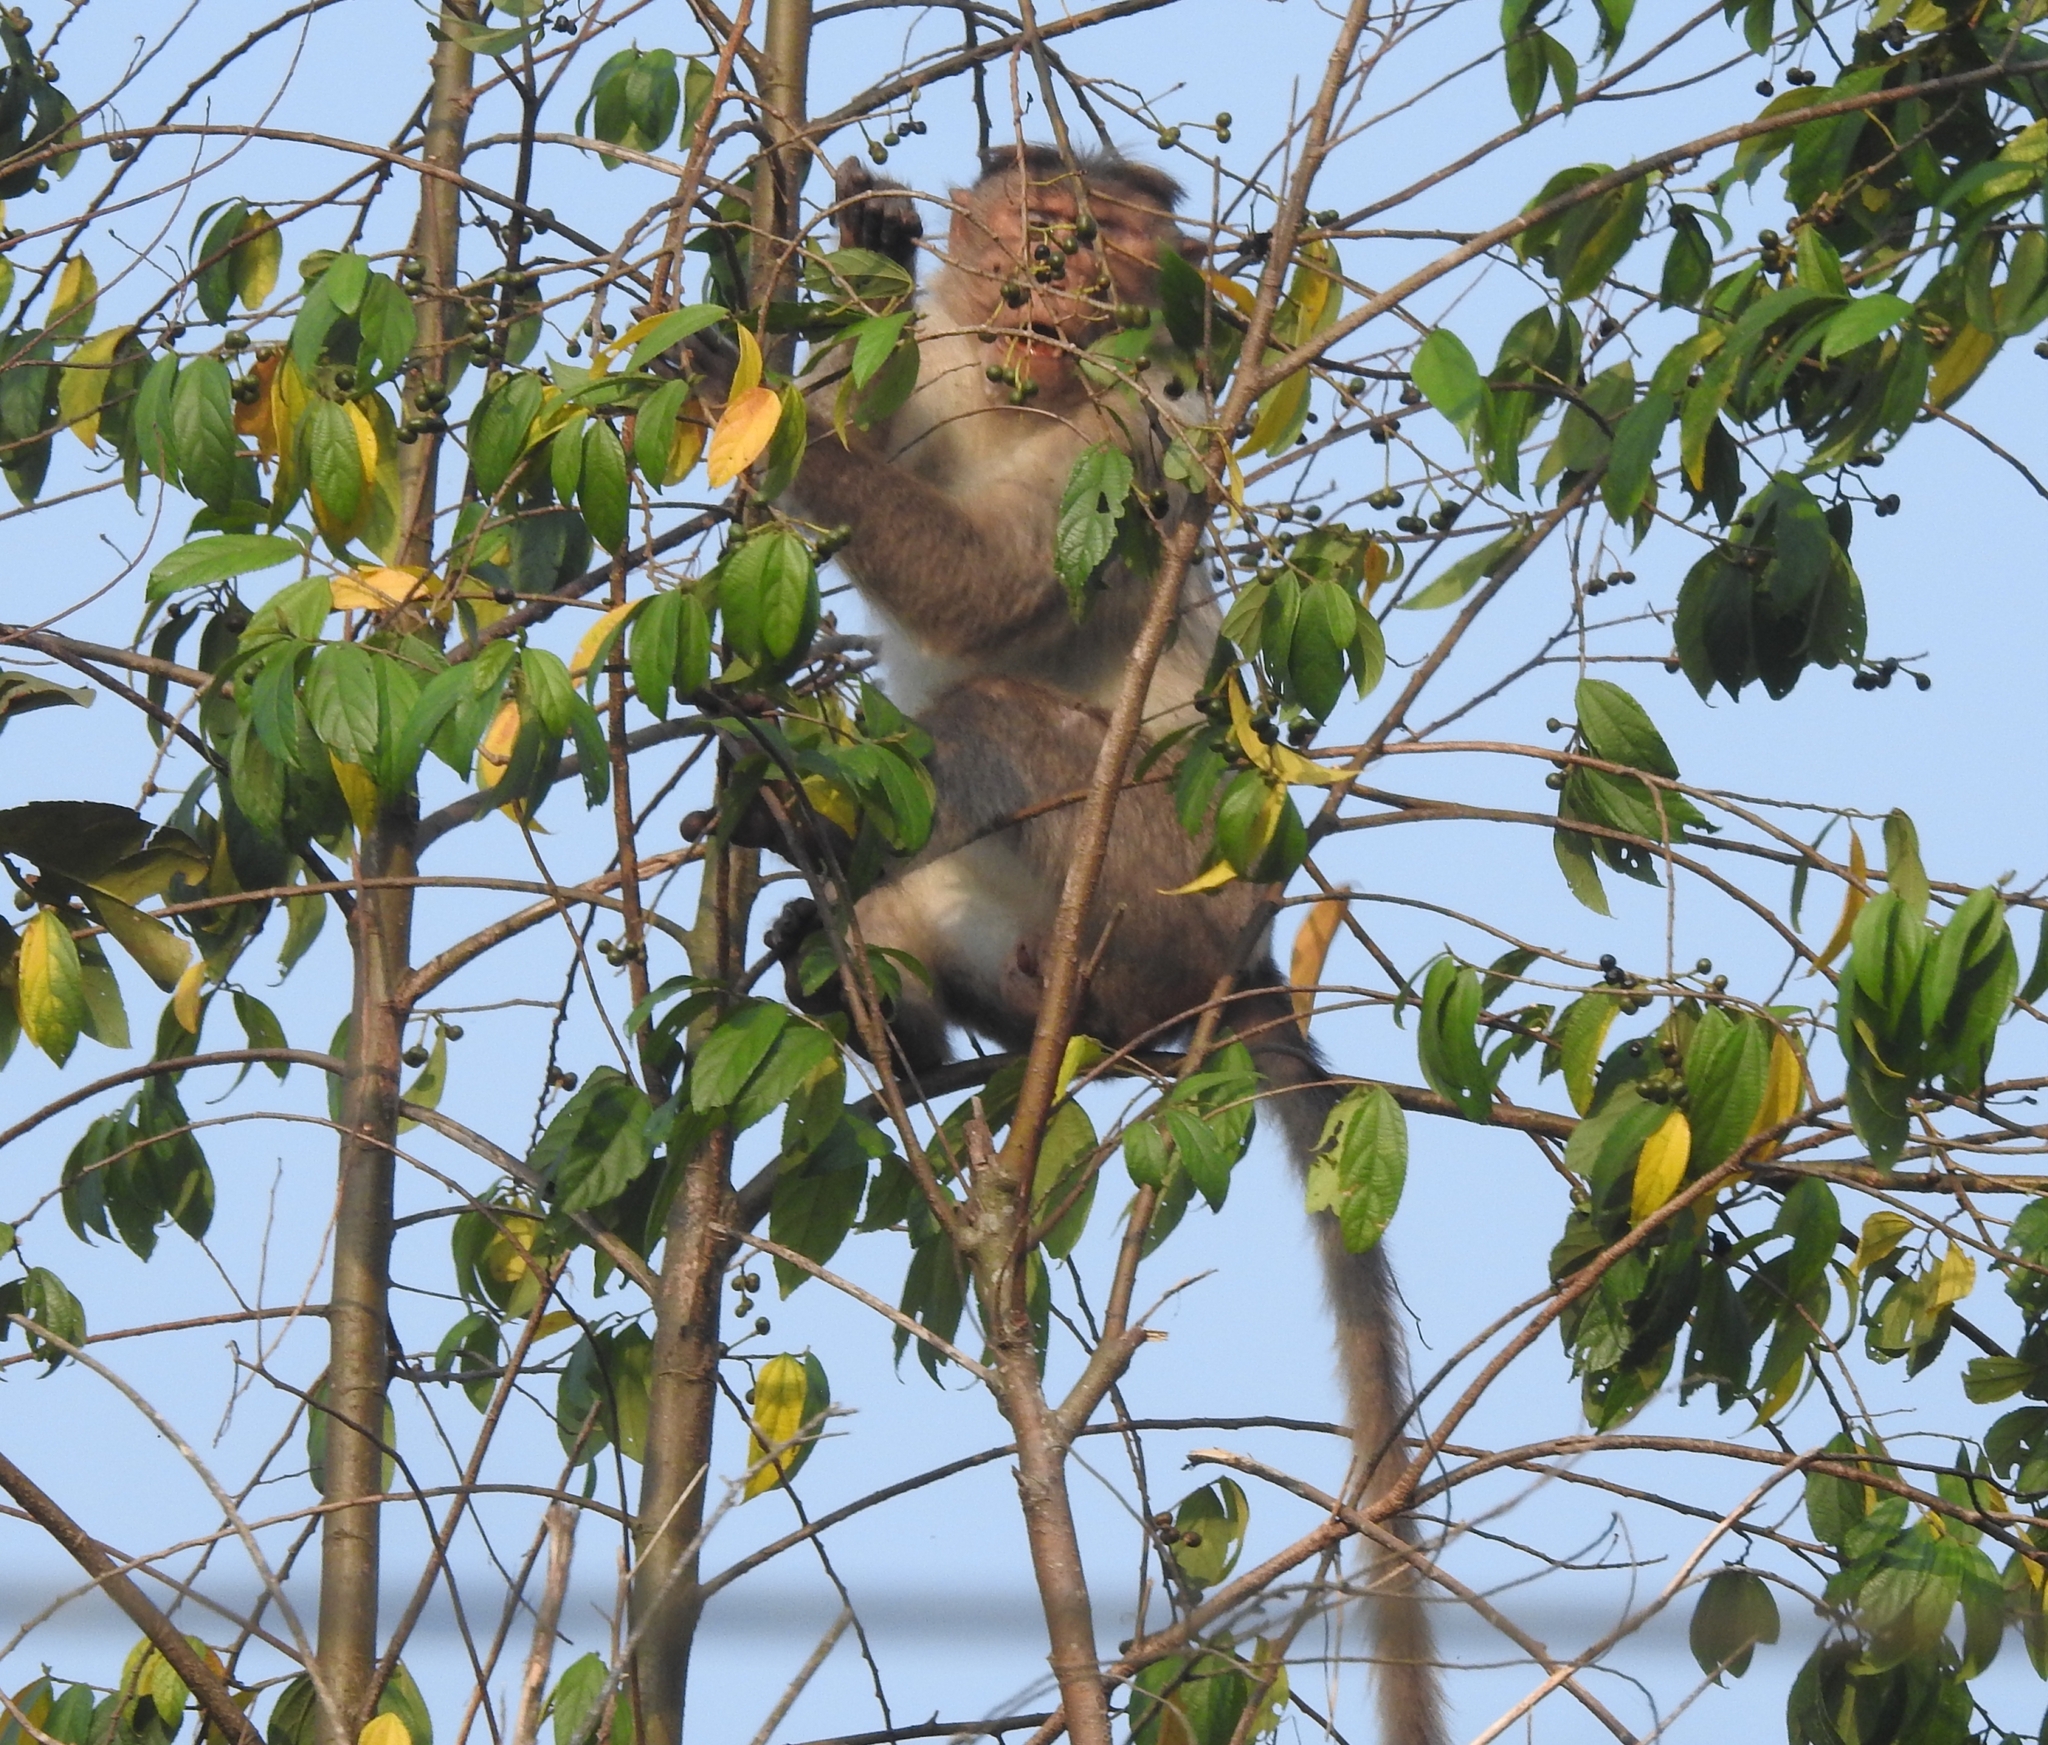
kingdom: Animalia
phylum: Chordata
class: Mammalia
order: Primates
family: Cercopithecidae
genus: Macaca
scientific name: Macaca radiata
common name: Bonnet macaque
